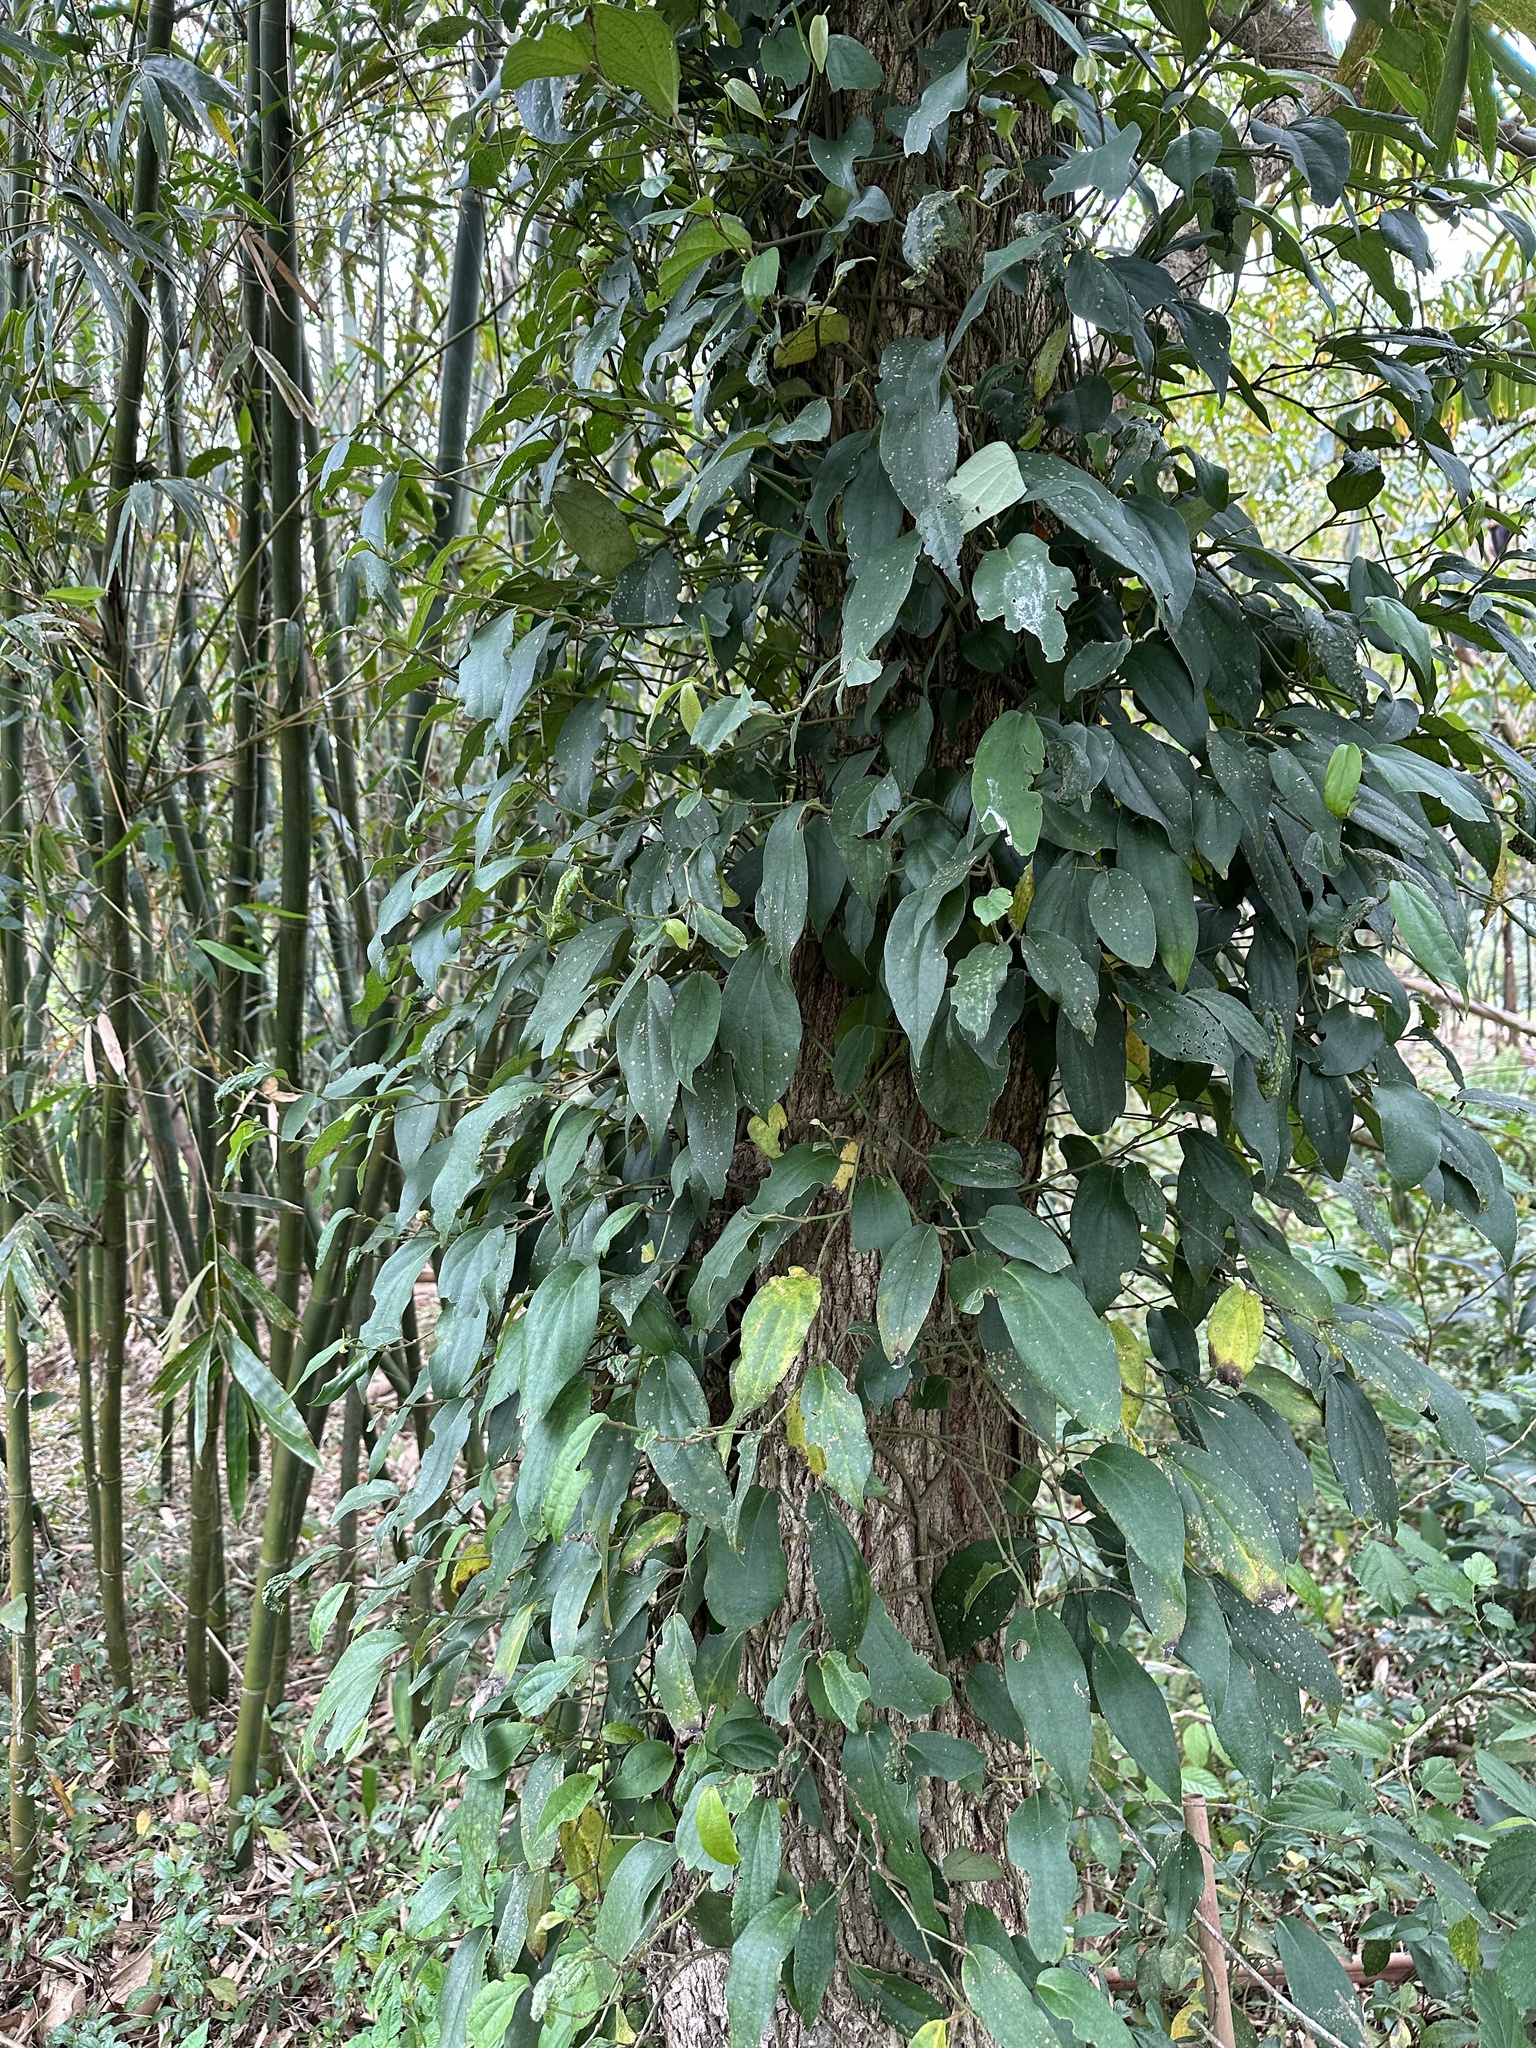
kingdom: Plantae
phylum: Tracheophyta
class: Magnoliopsida
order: Piperales
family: Piperaceae
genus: Piper
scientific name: Piper kadsura
